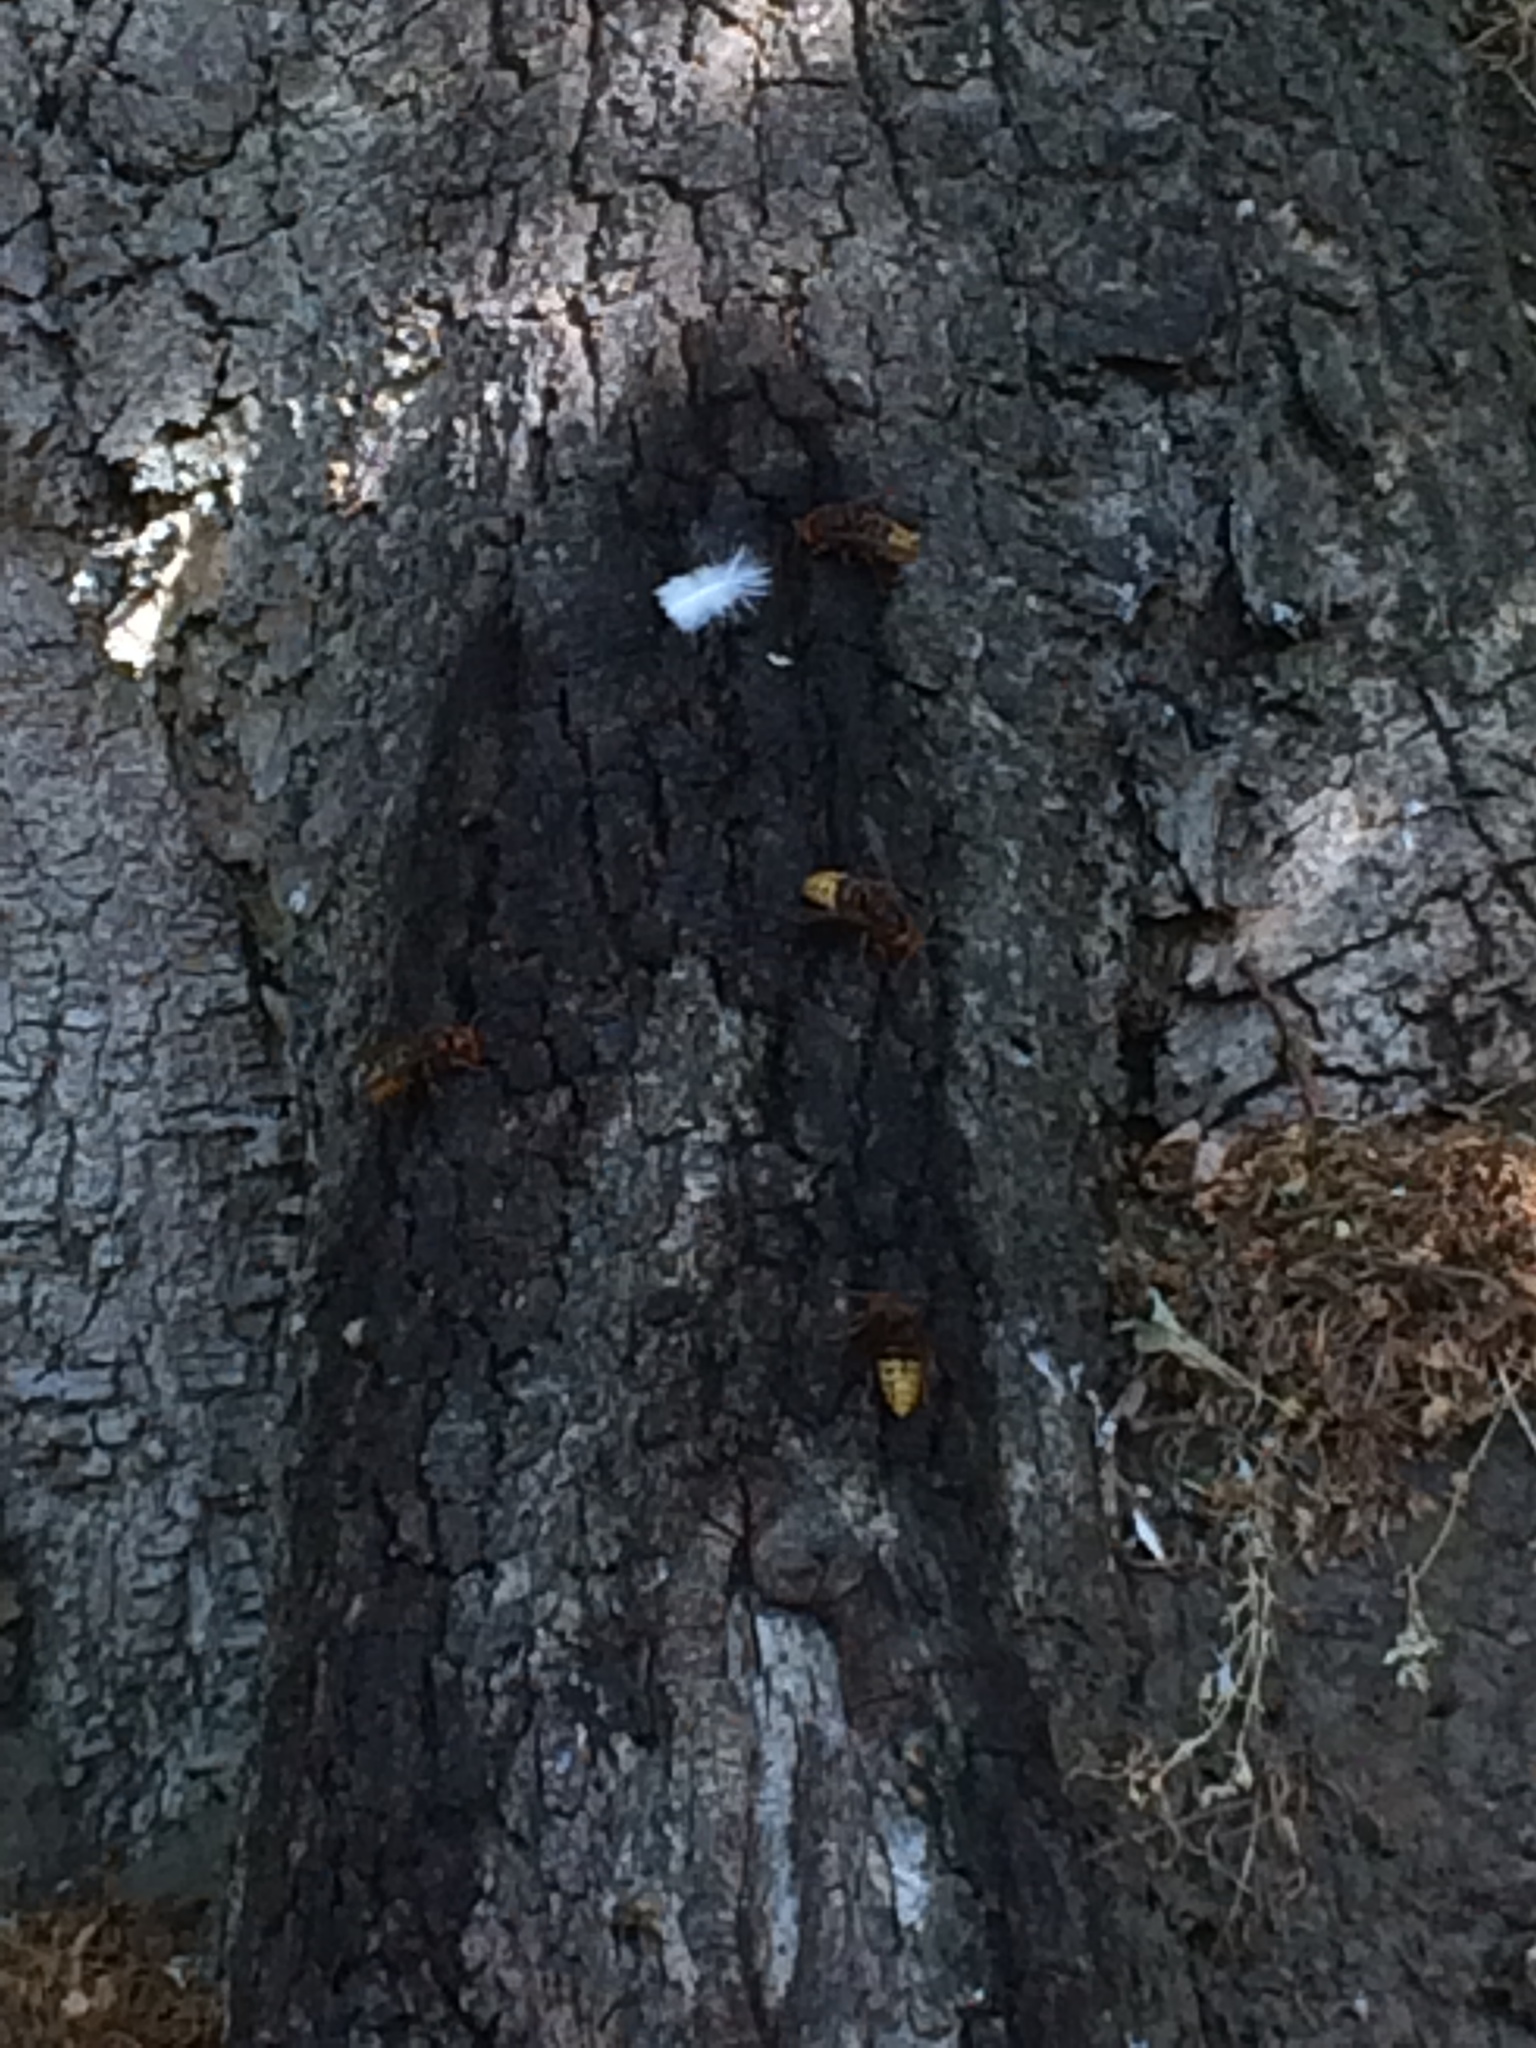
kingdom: Animalia
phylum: Arthropoda
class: Insecta
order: Hymenoptera
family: Vespidae
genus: Vespa
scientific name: Vespa crabro
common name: Hornet
